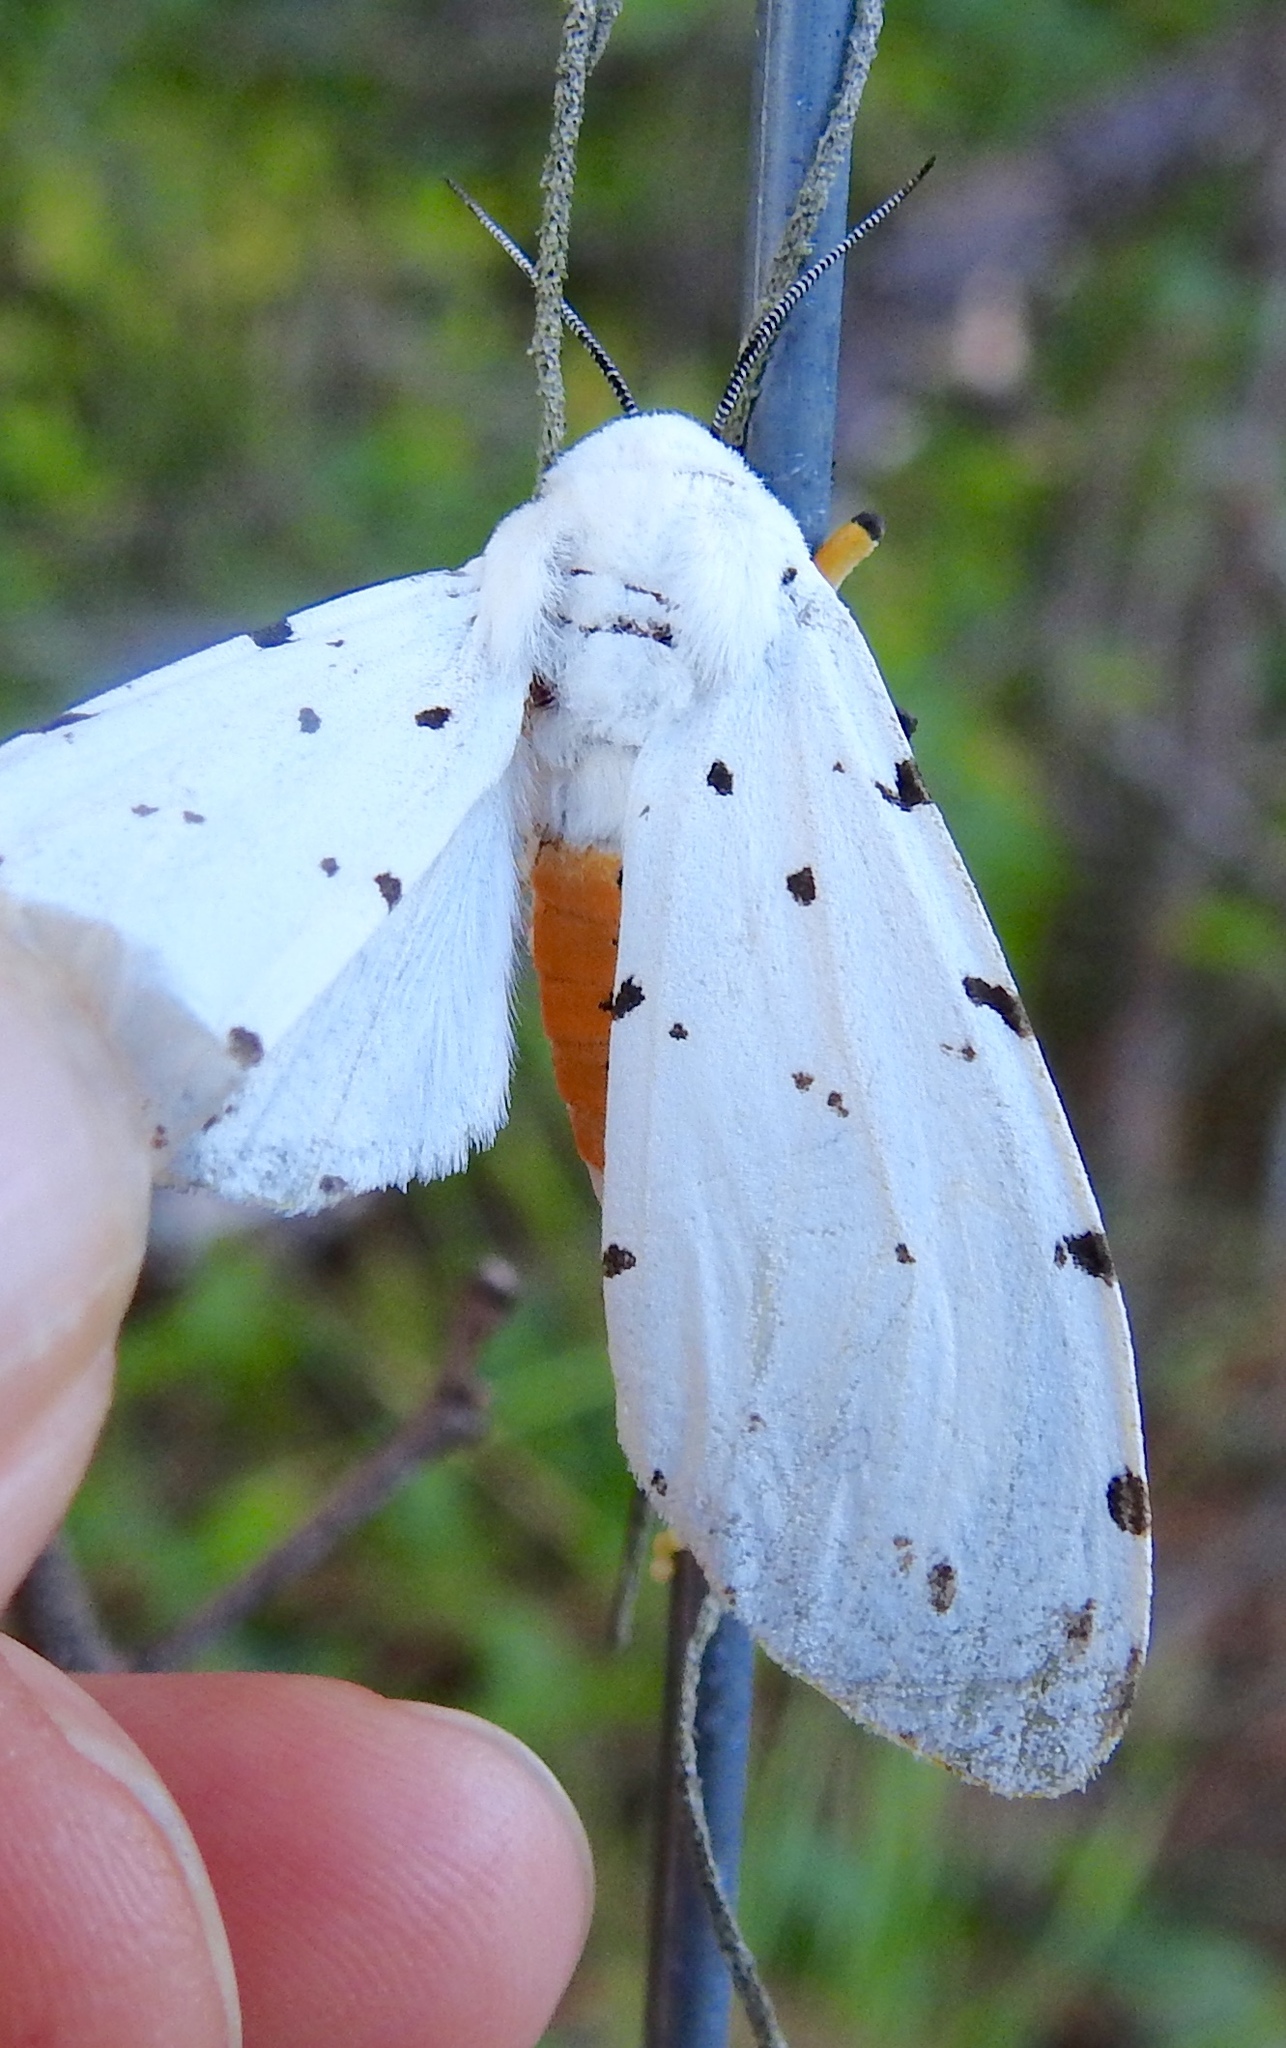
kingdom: Animalia
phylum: Arthropoda
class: Insecta
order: Lepidoptera
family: Erebidae
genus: Estigmene
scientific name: Estigmene acrea
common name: Salt marsh moth
